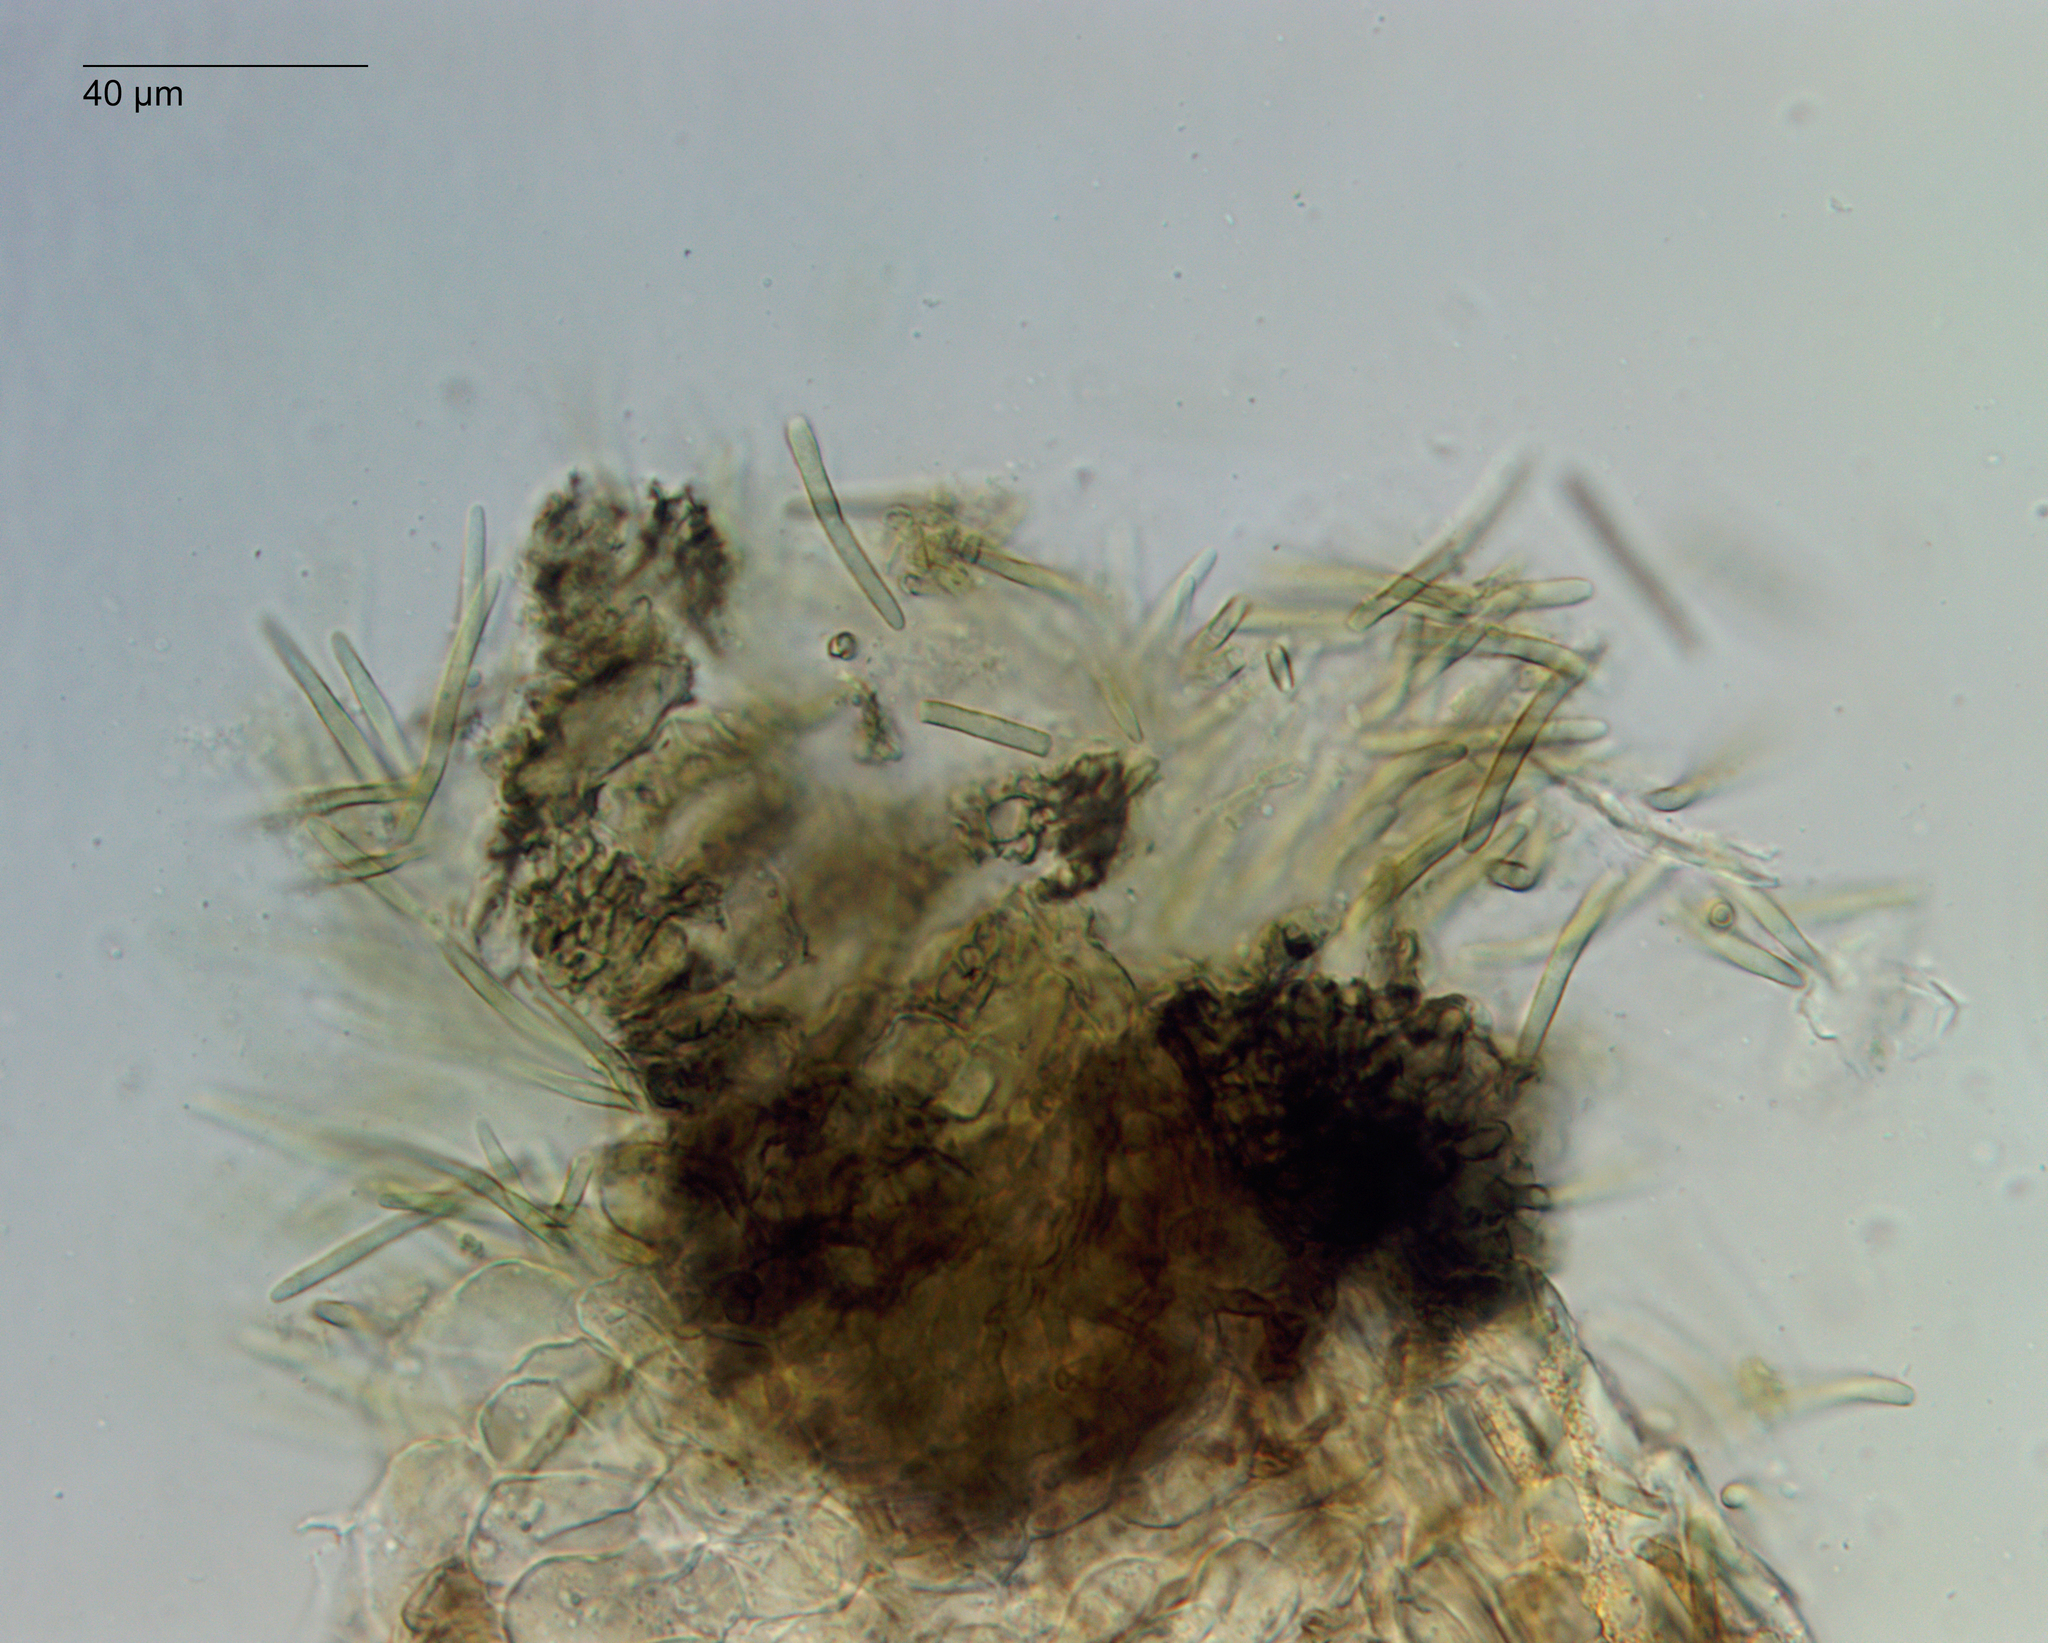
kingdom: Fungi
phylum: Ascomycota
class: Dothideomycetes
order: Mycosphaerellales
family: Mycosphaerellaceae
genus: Pseudophaeophleospora
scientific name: Pseudophaeophleospora phormii
